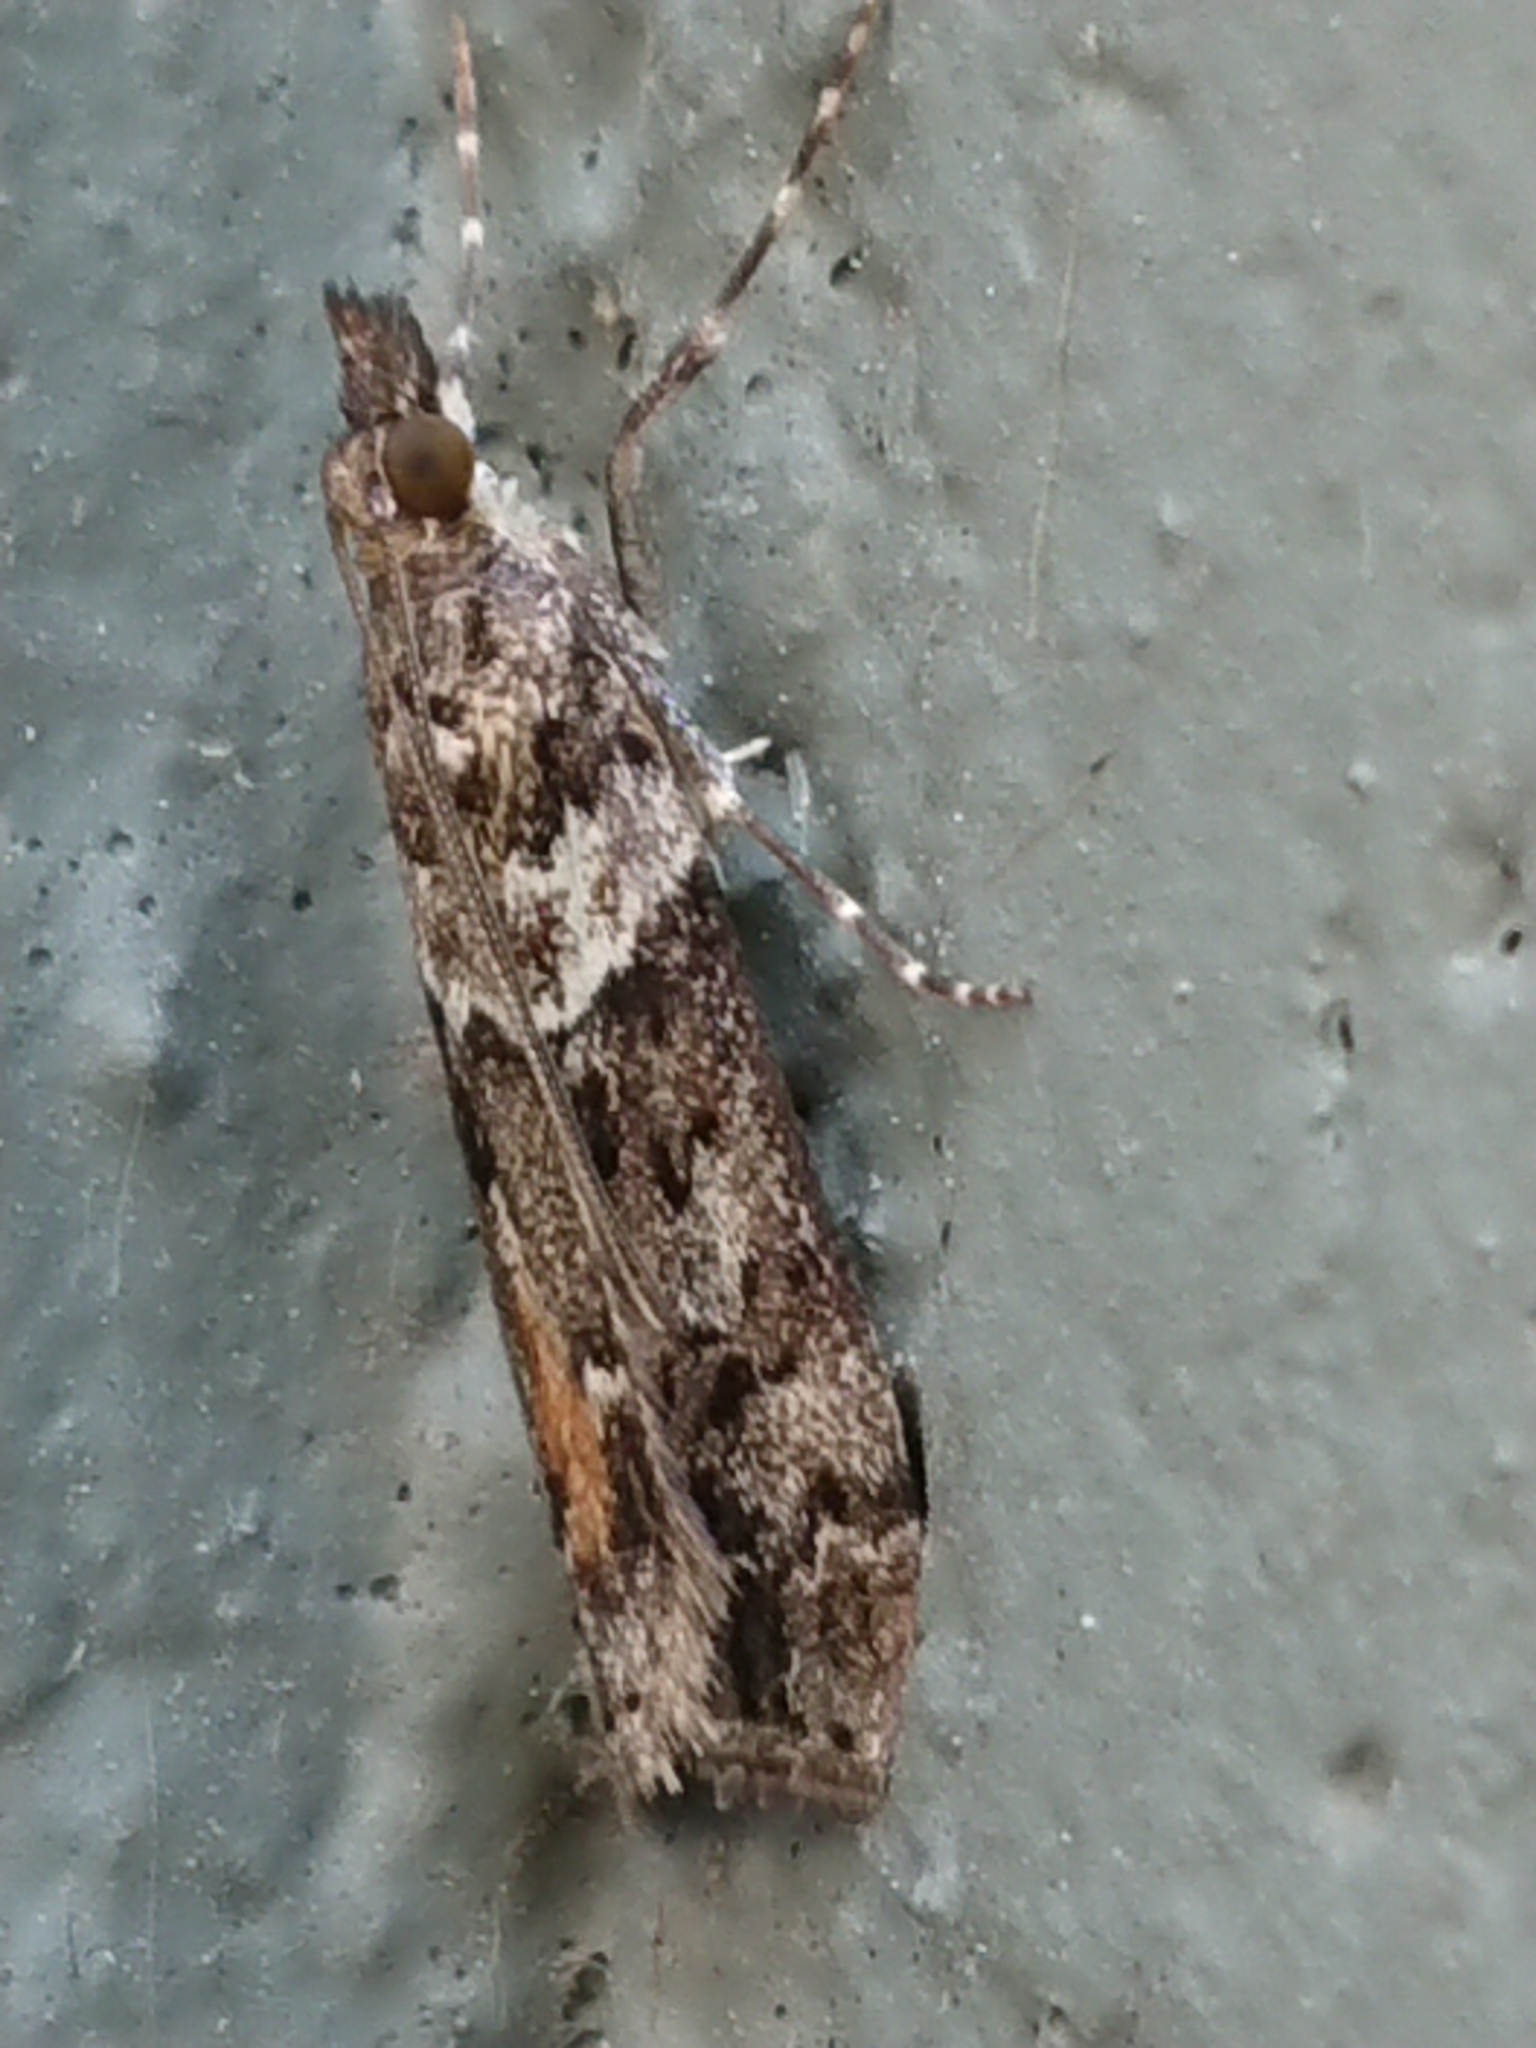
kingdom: Animalia
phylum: Arthropoda
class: Insecta
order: Lepidoptera
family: Crambidae
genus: Eudonia
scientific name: Eudonia submarginalis
